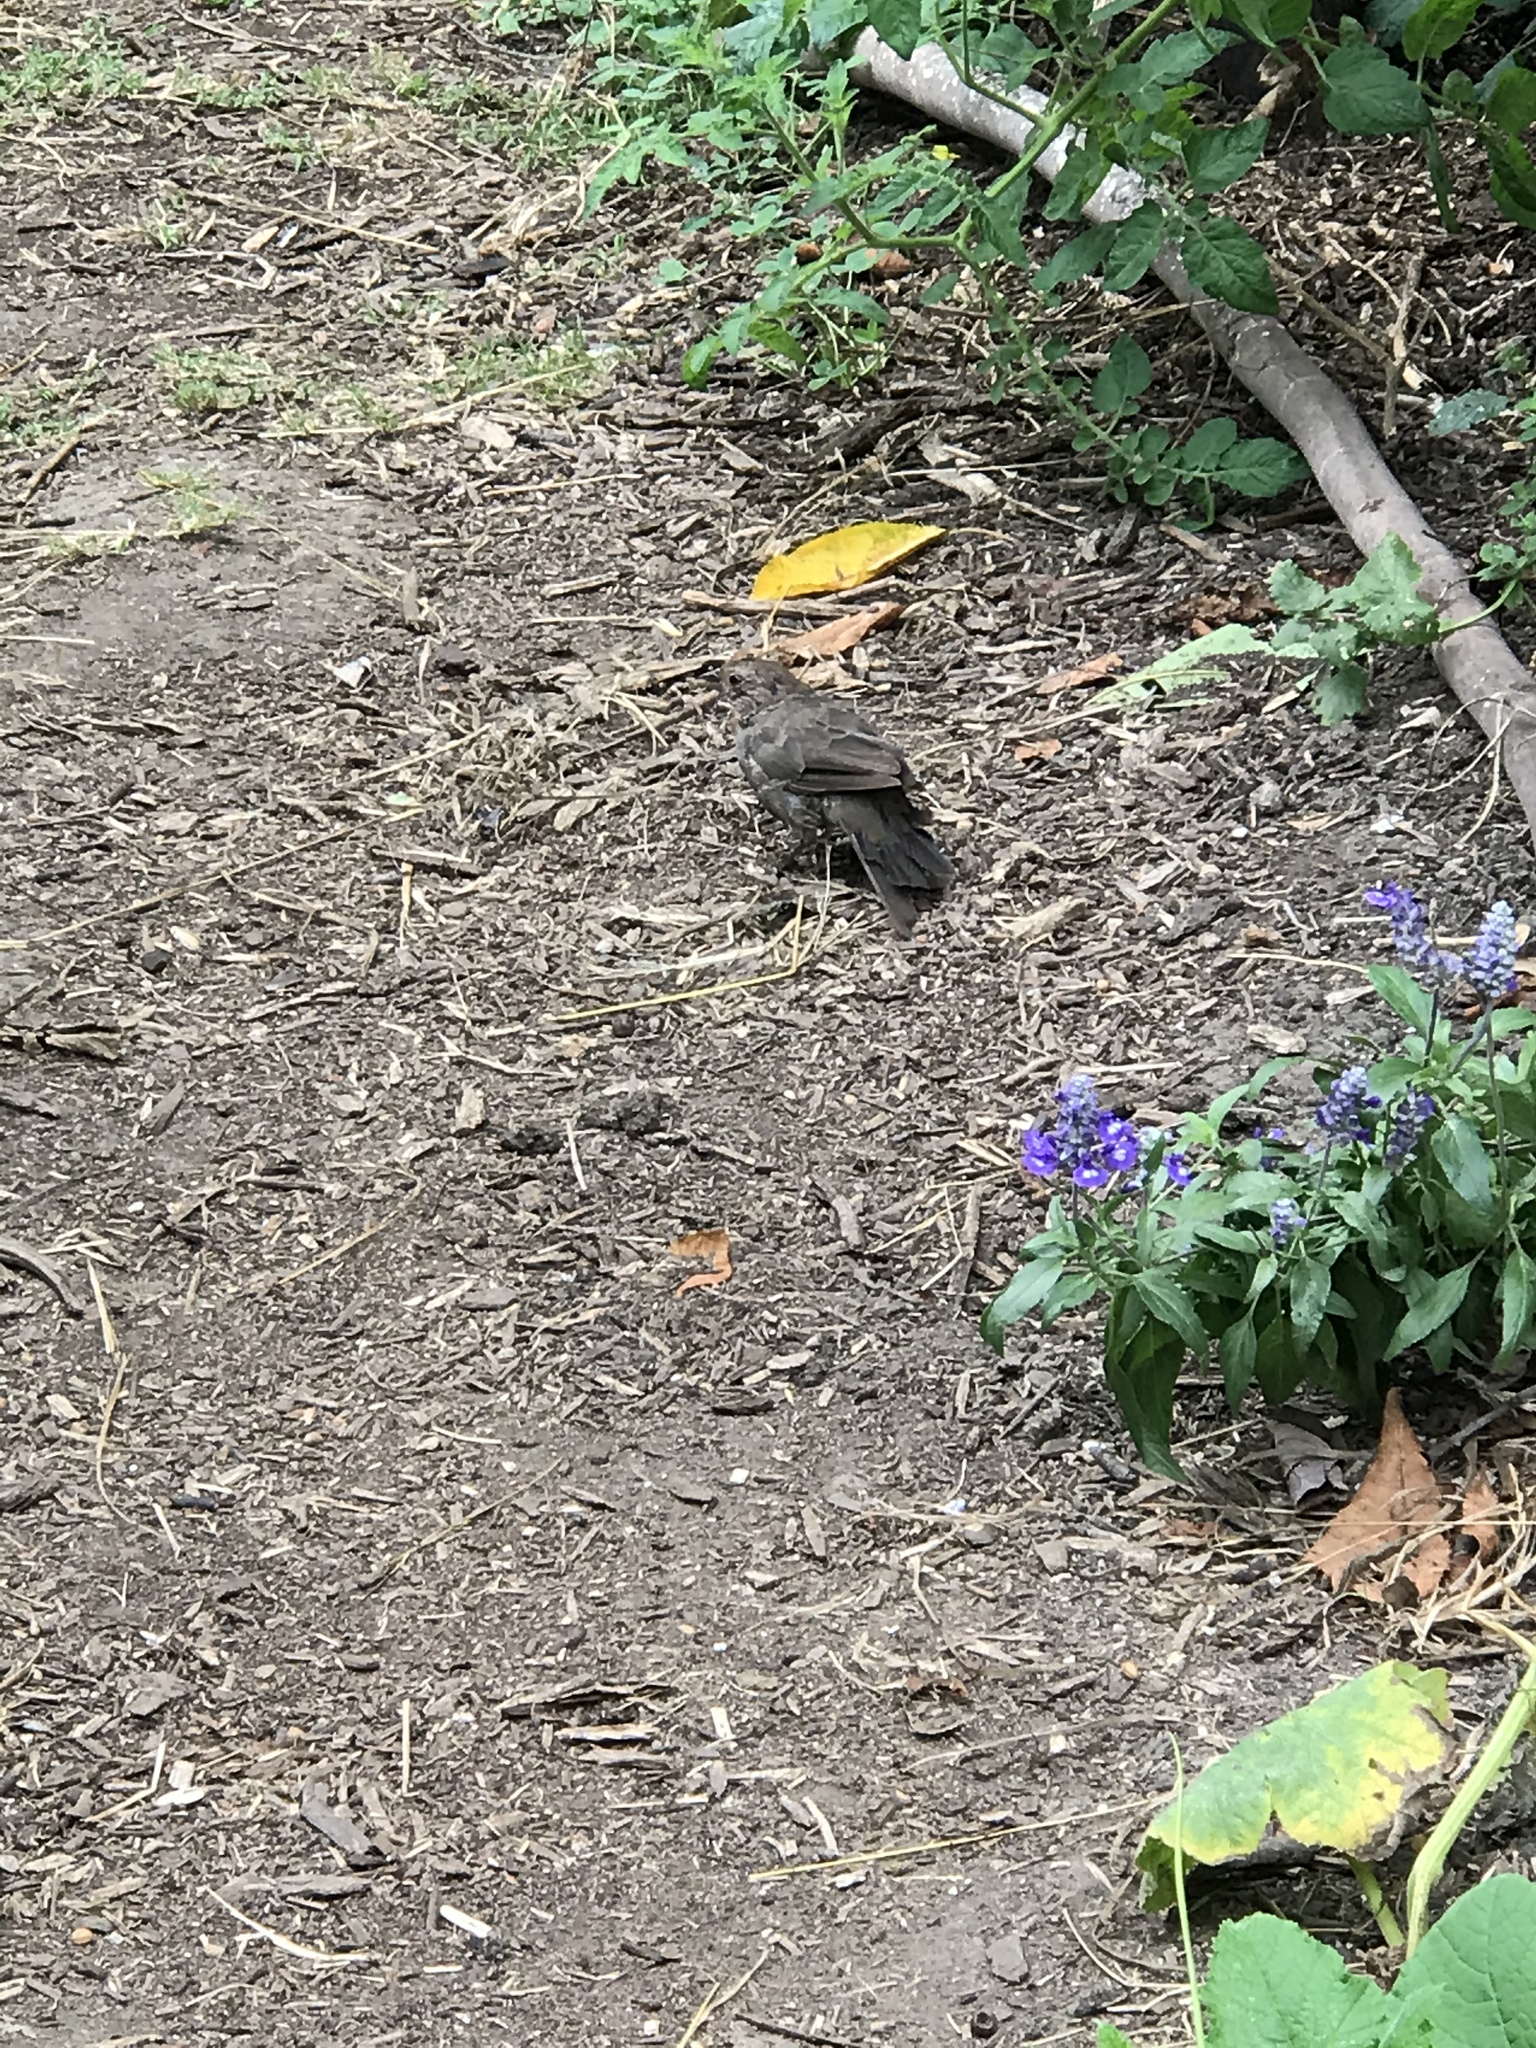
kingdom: Animalia
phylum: Chordata
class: Aves
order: Passeriformes
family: Passerellidae
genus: Melozone
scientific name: Melozone crissalis
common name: California towhee
